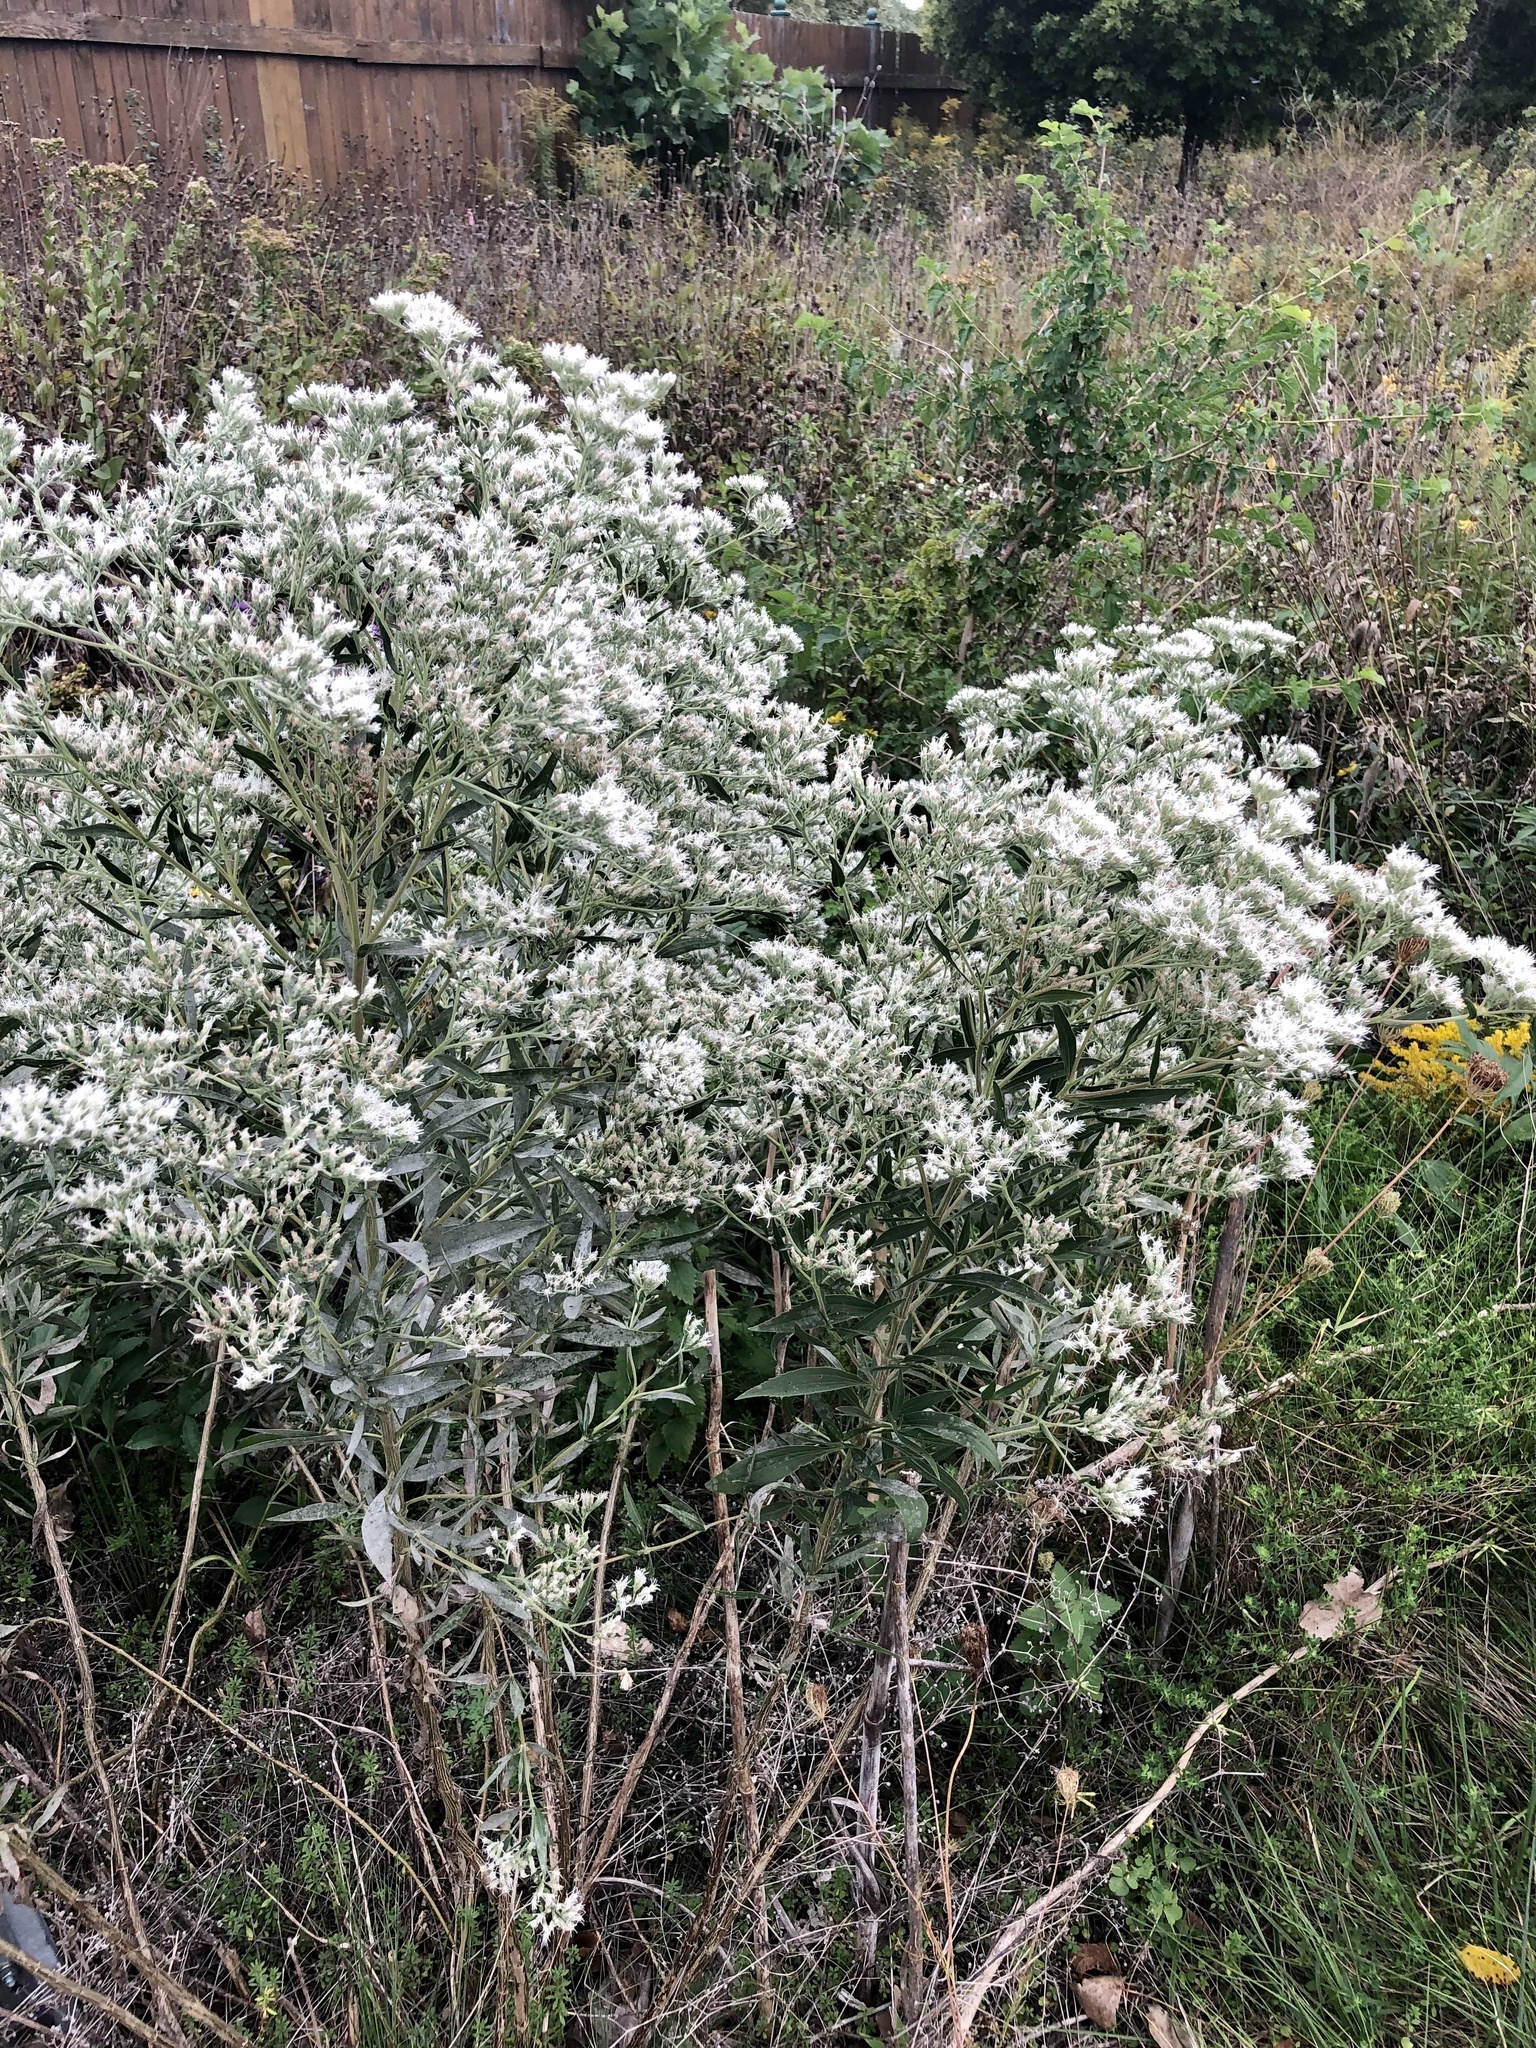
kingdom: Plantae
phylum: Tracheophyta
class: Magnoliopsida
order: Asterales
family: Asteraceae
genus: Eupatorium
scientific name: Eupatorium altissimum
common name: Tall thoroughwort
